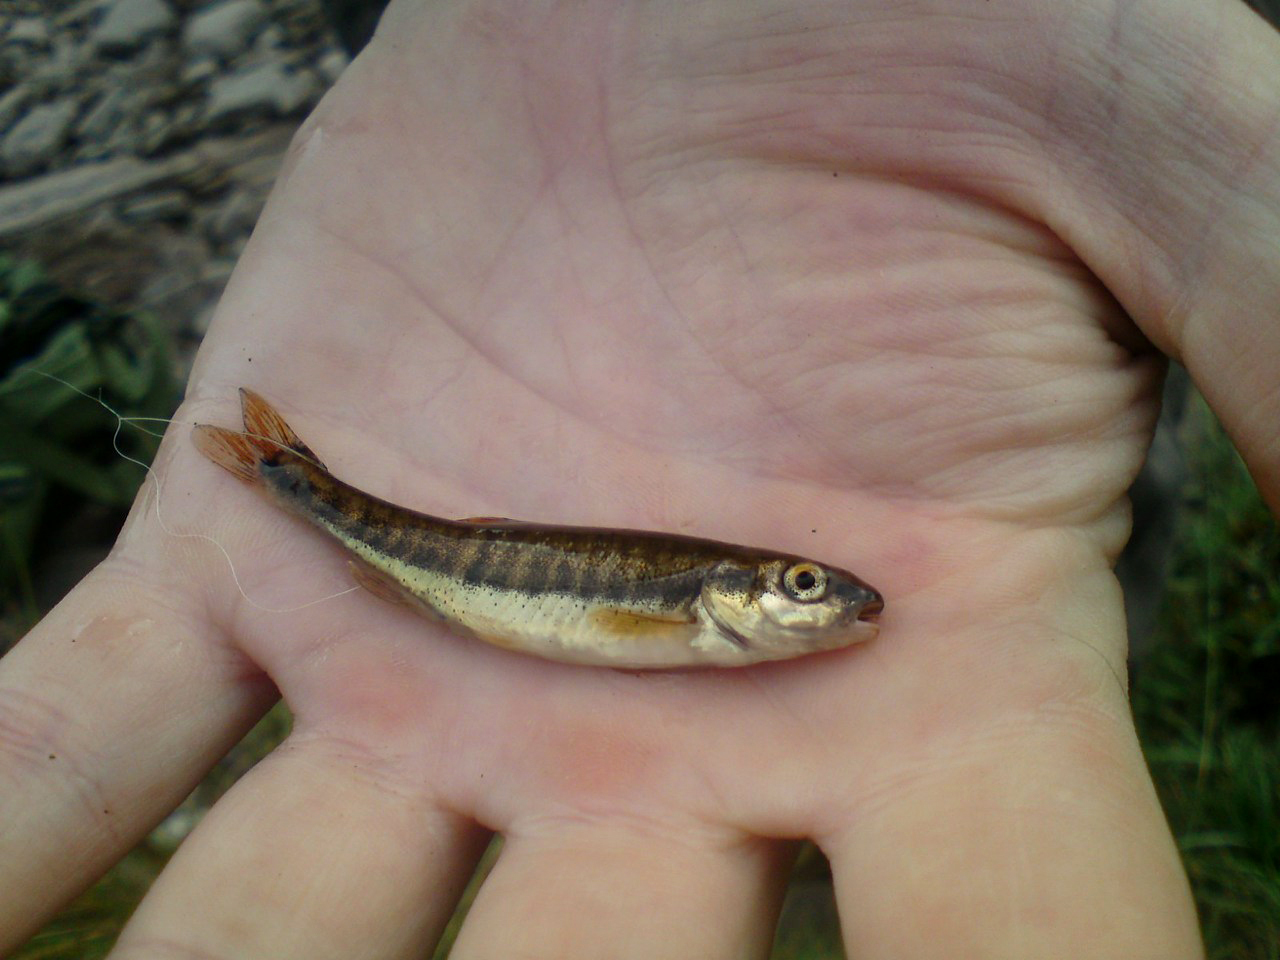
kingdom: Animalia
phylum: Chordata
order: Cypriniformes
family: Cyprinidae
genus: Phoxinus
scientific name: Phoxinus phoxinus
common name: Minnow
